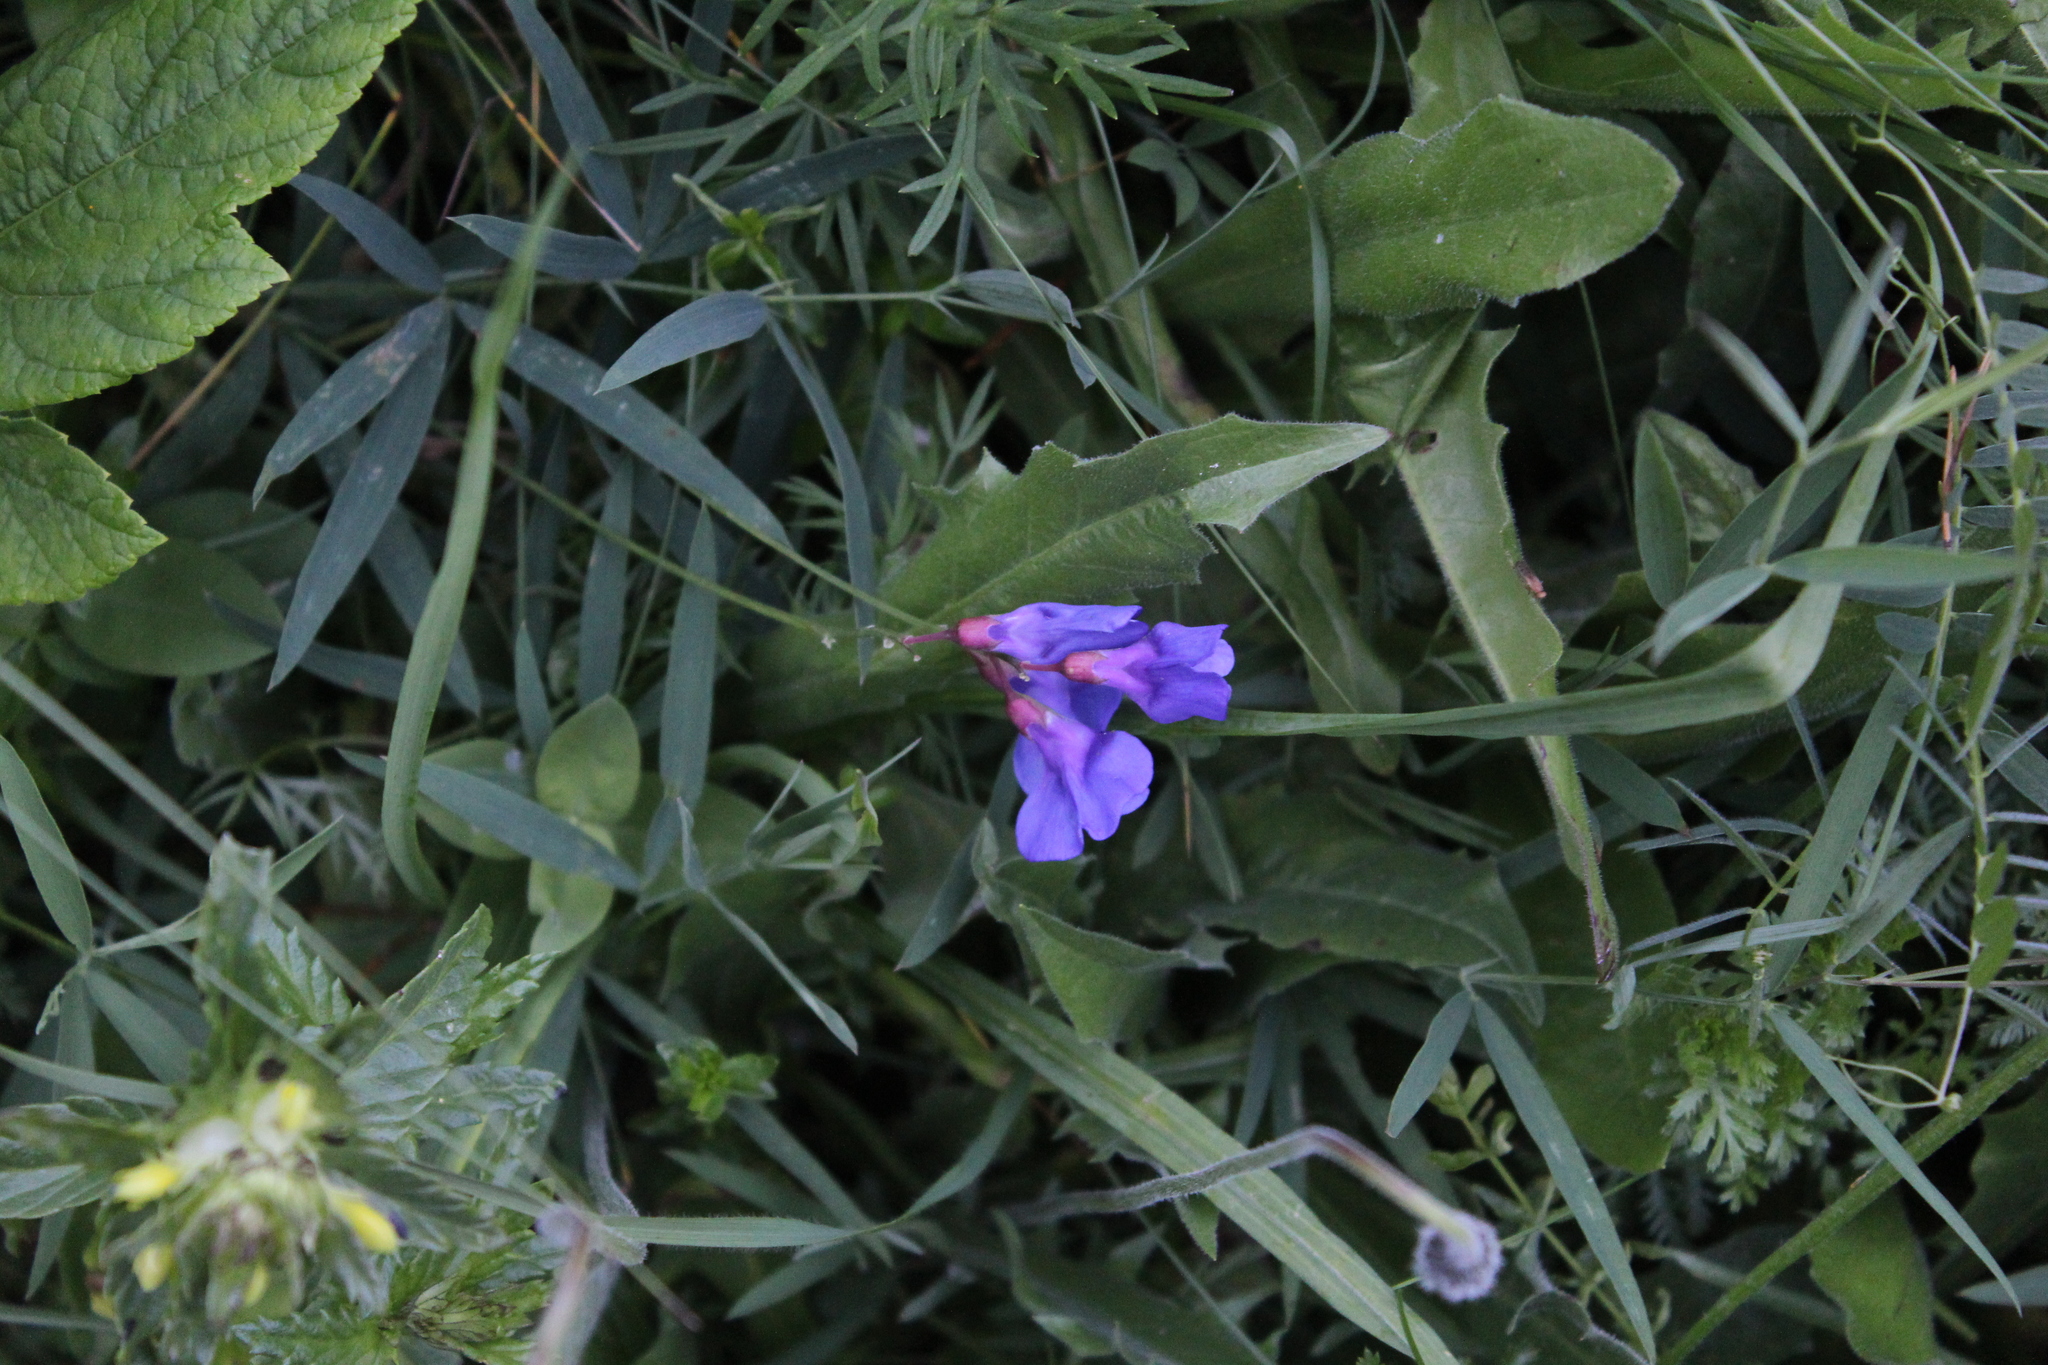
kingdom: Plantae
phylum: Tracheophyta
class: Magnoliopsida
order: Fabales
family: Fabaceae
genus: Lathyrus
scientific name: Lathyrus cyaneus
